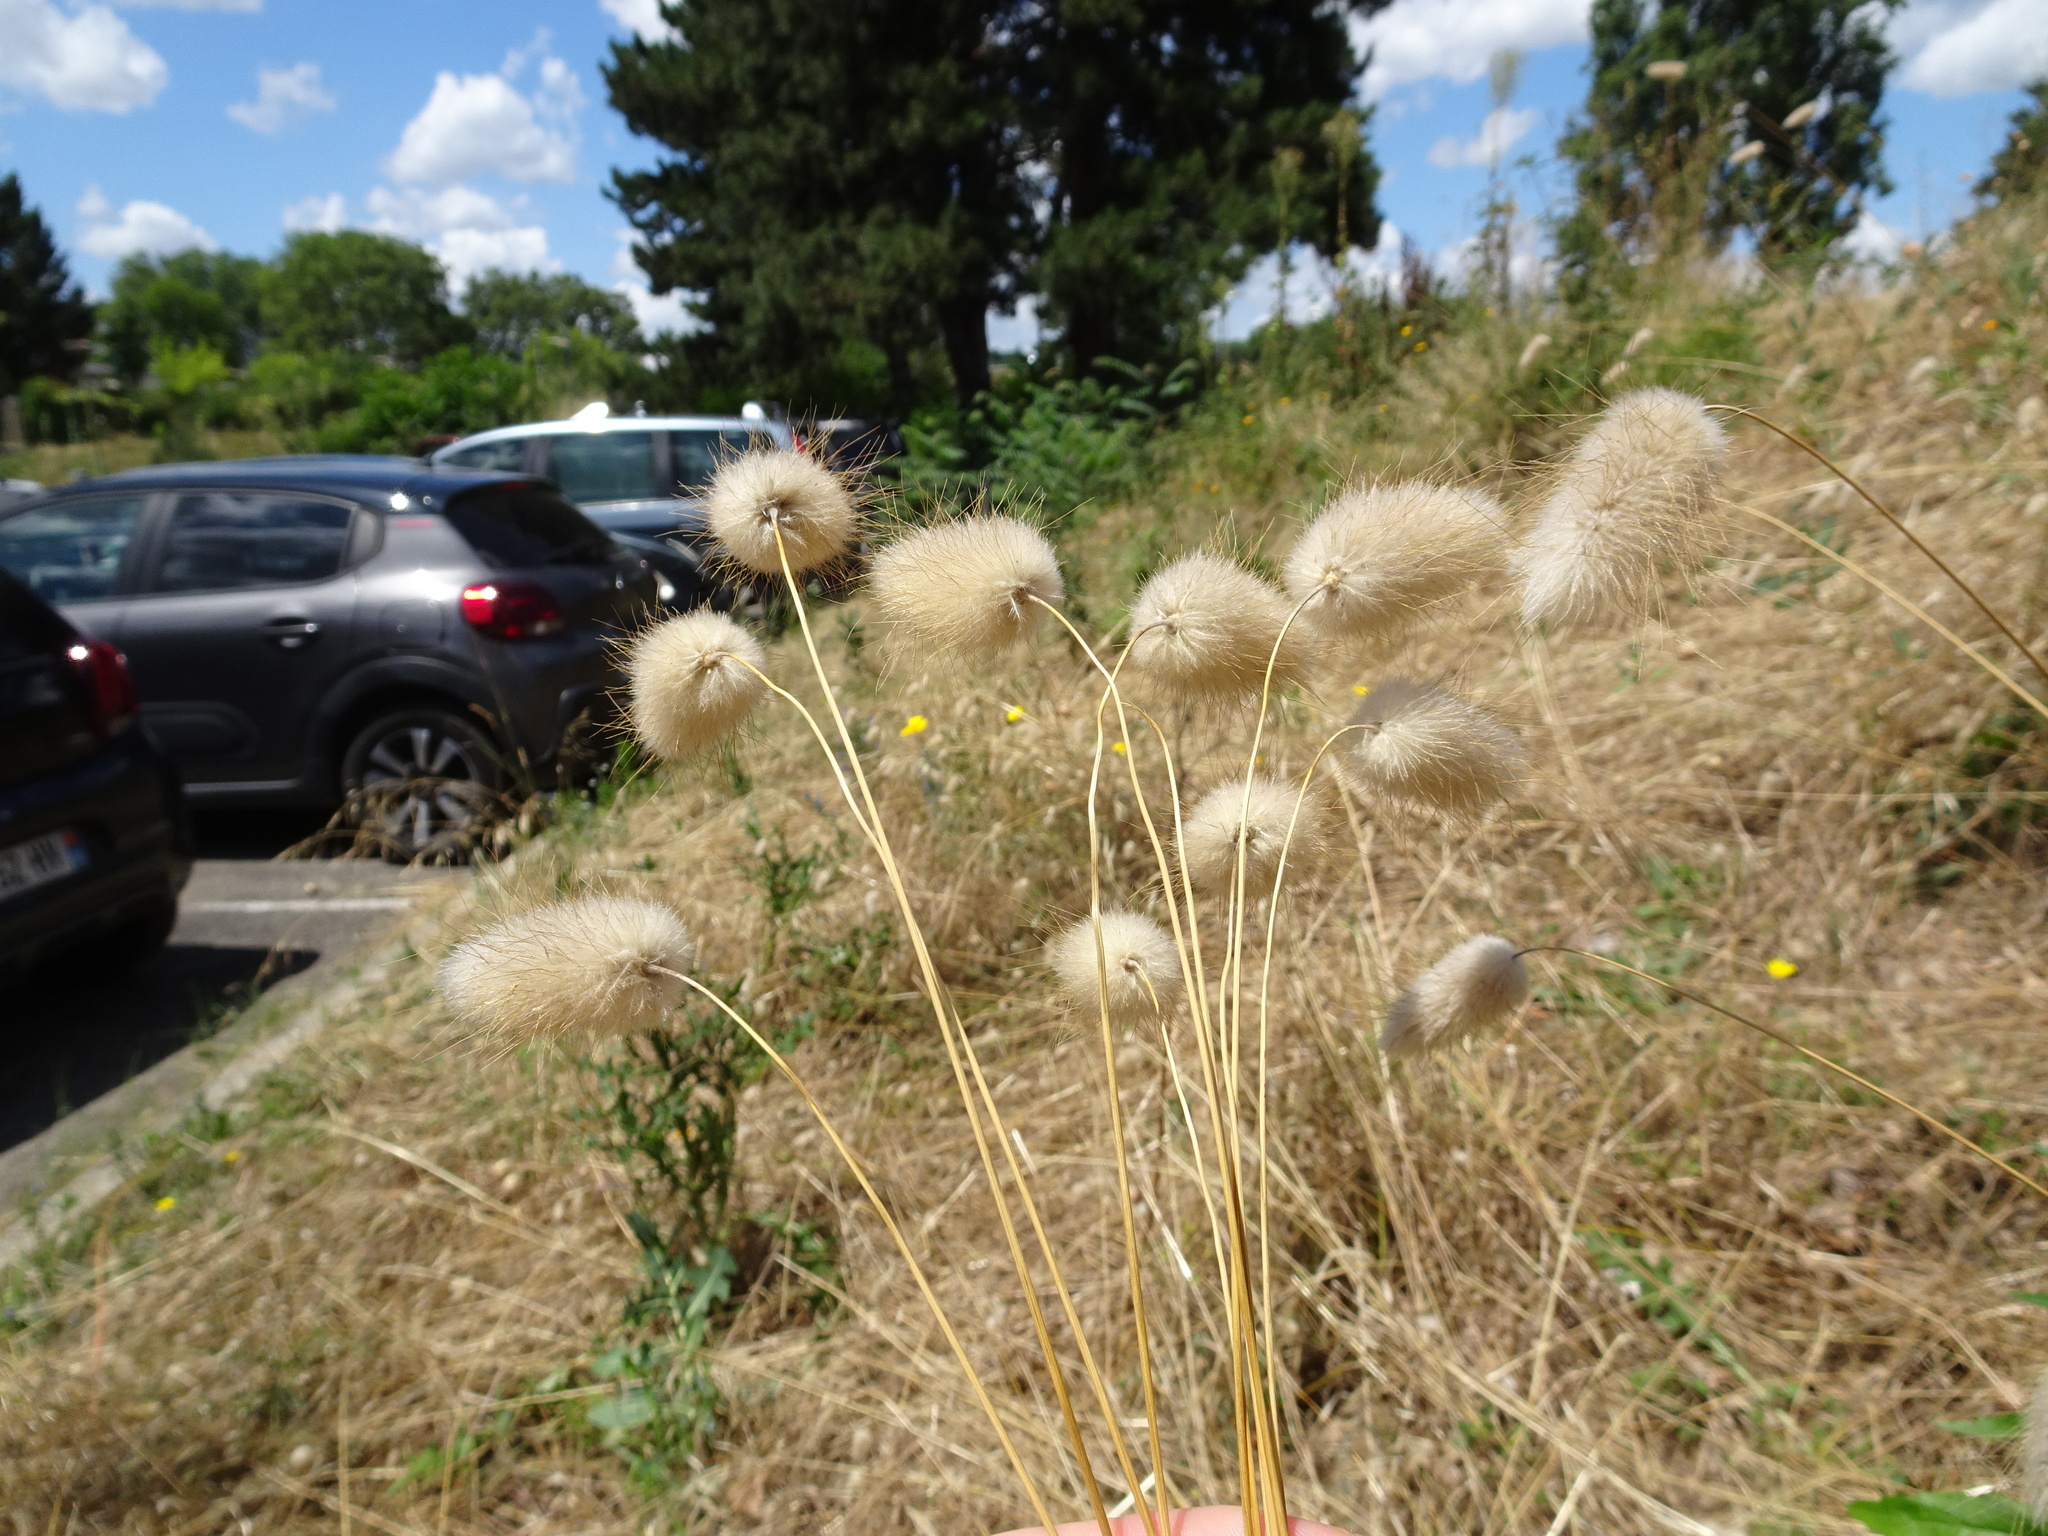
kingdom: Plantae
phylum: Tracheophyta
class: Liliopsida
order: Poales
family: Poaceae
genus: Lagurus
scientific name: Lagurus ovatus
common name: Hare's-tail
